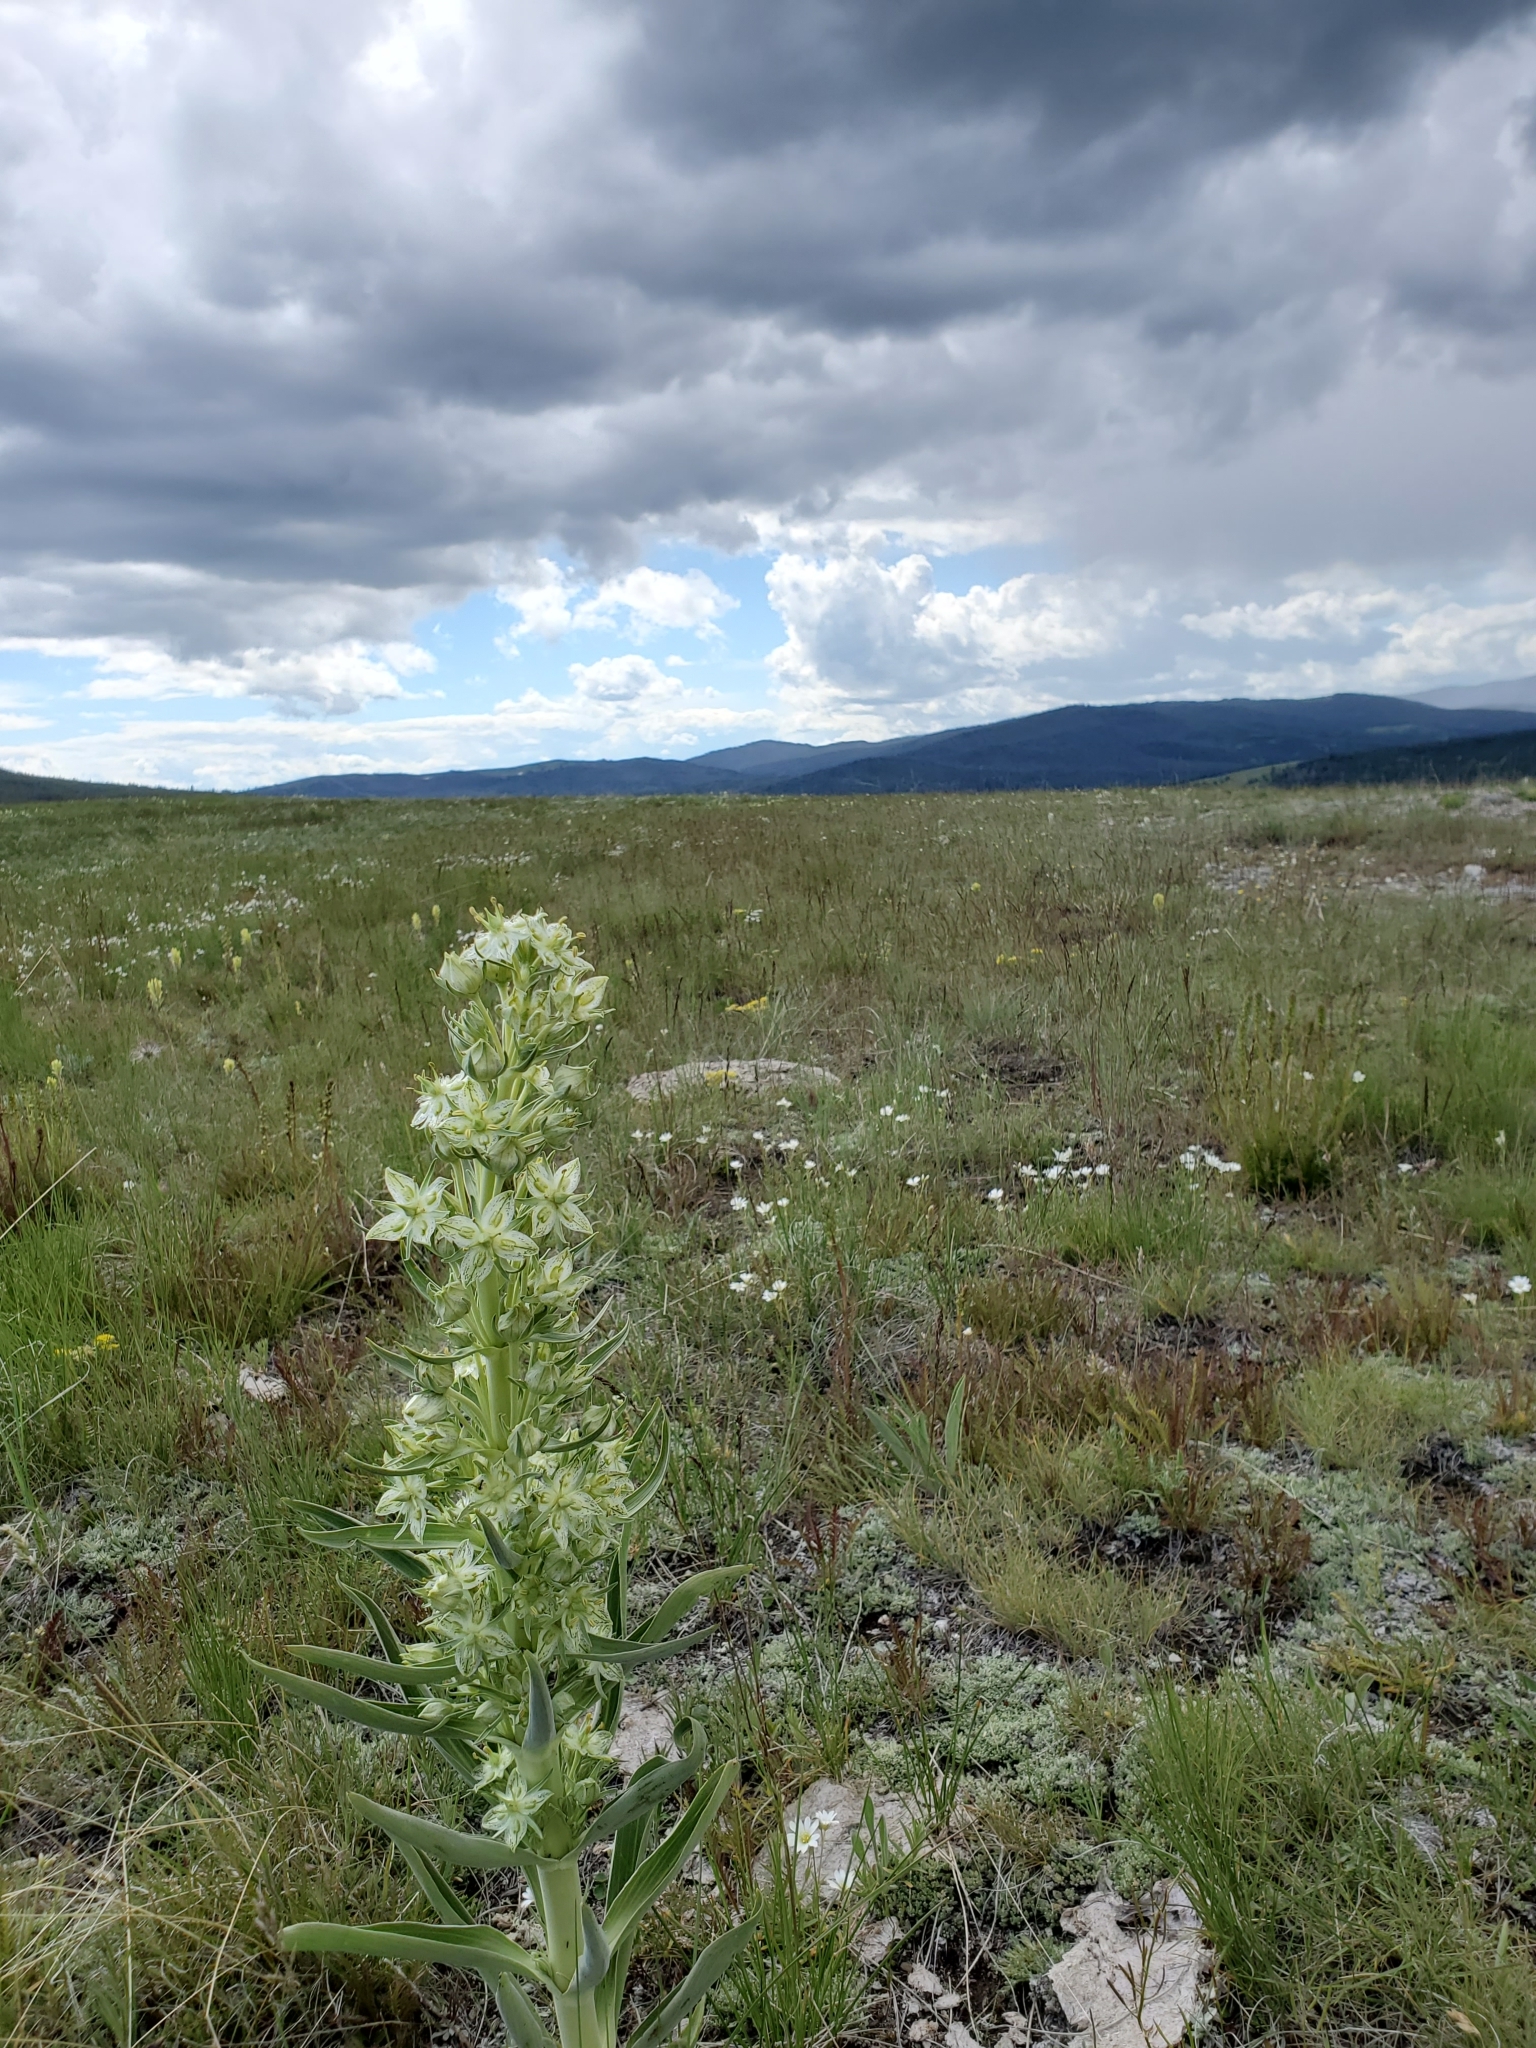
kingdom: Plantae
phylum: Tracheophyta
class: Magnoliopsida
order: Gentianales
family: Gentianaceae
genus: Frasera
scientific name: Frasera speciosa
